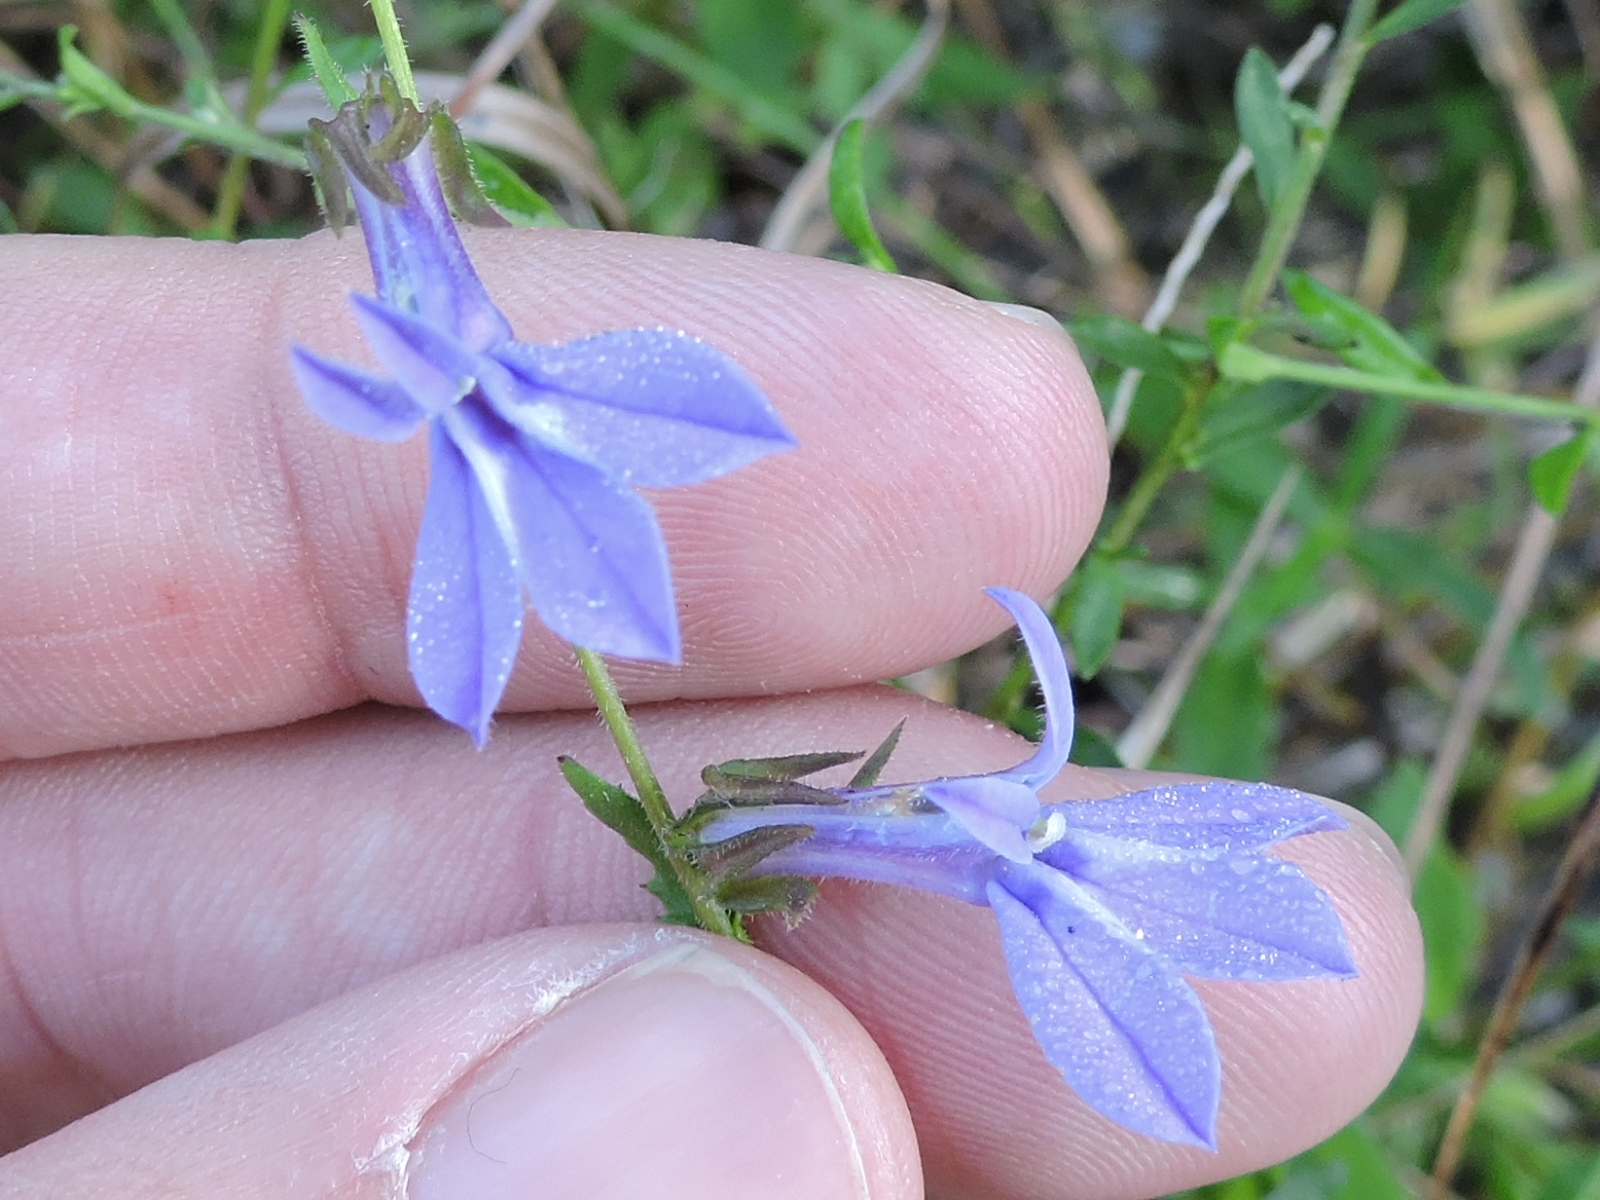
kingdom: Plantae
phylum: Tracheophyta
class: Magnoliopsida
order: Asterales
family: Campanulaceae
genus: Lobelia
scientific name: Lobelia reverchonii
